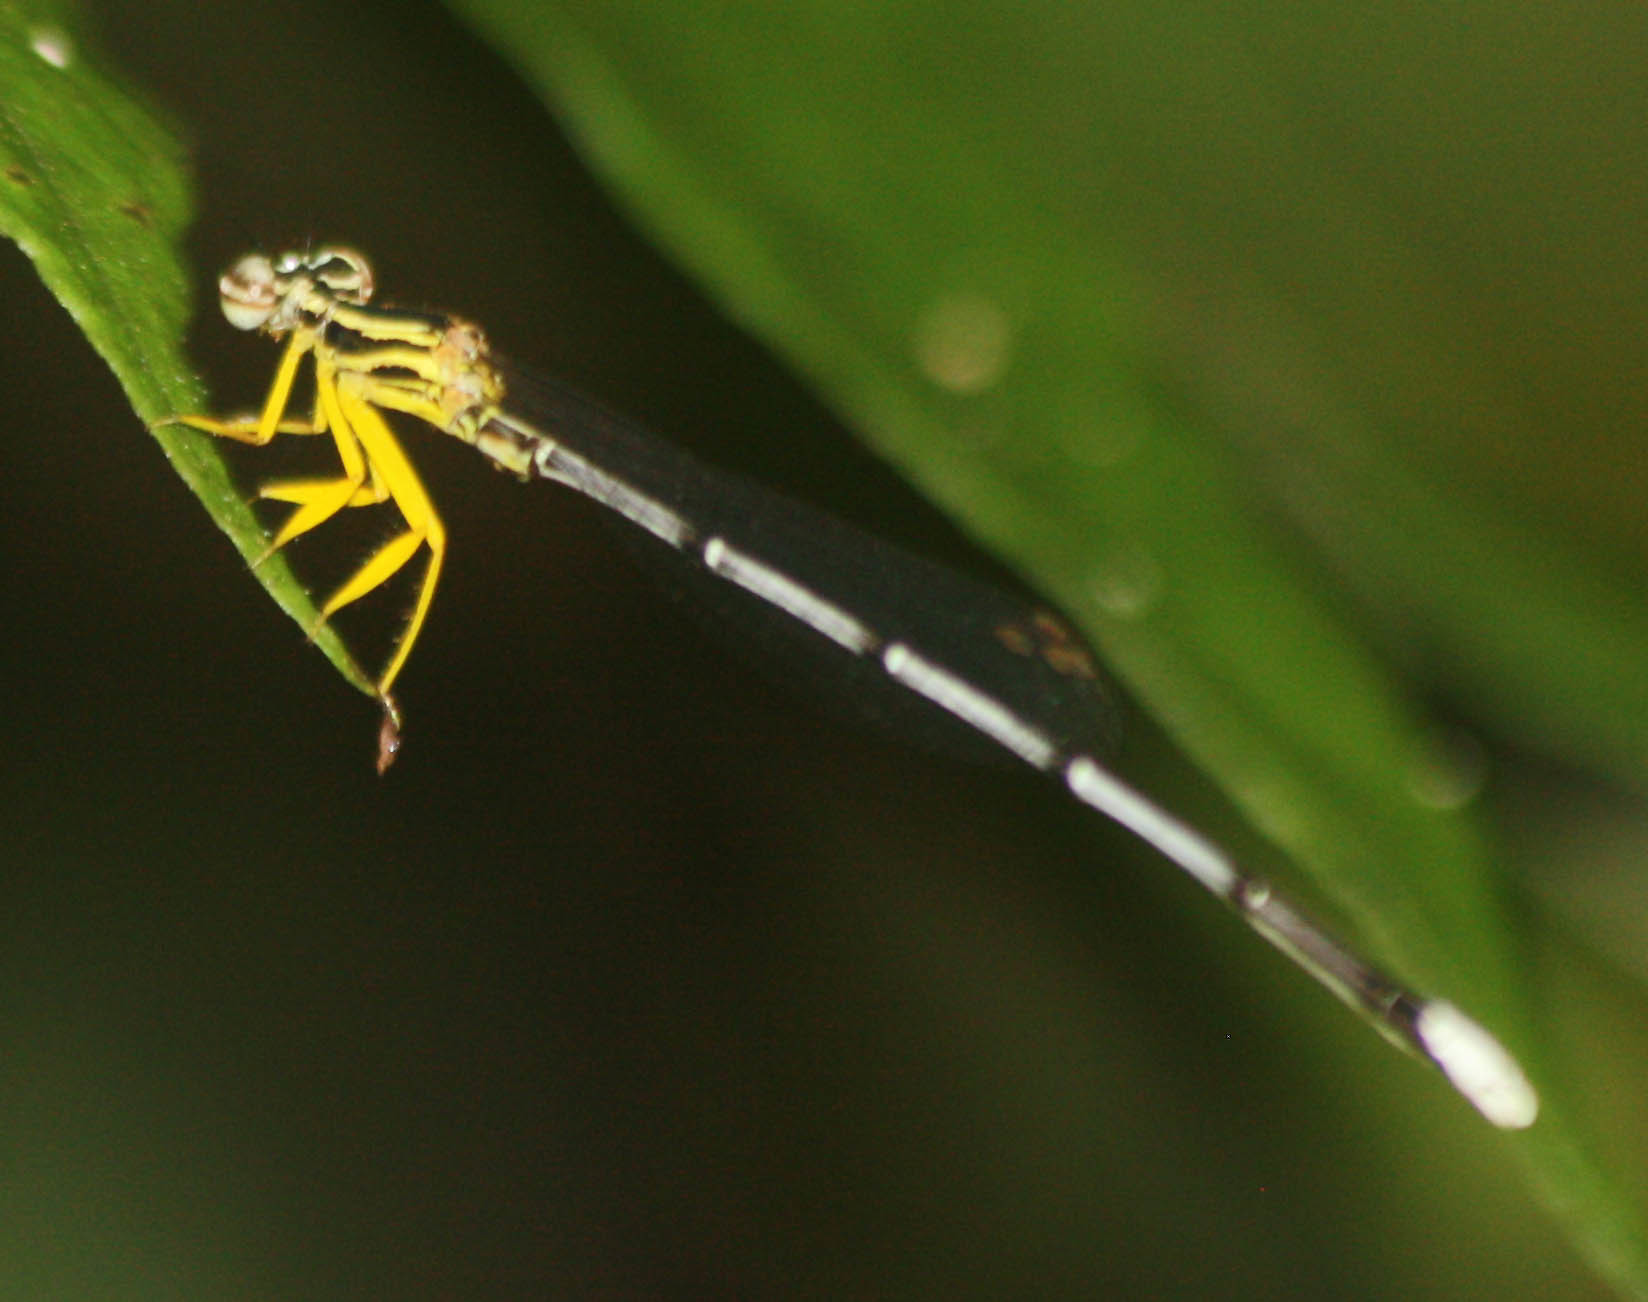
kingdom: Animalia
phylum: Arthropoda
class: Insecta
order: Odonata
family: Platycnemididae
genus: Copera
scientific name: Copera marginipes
